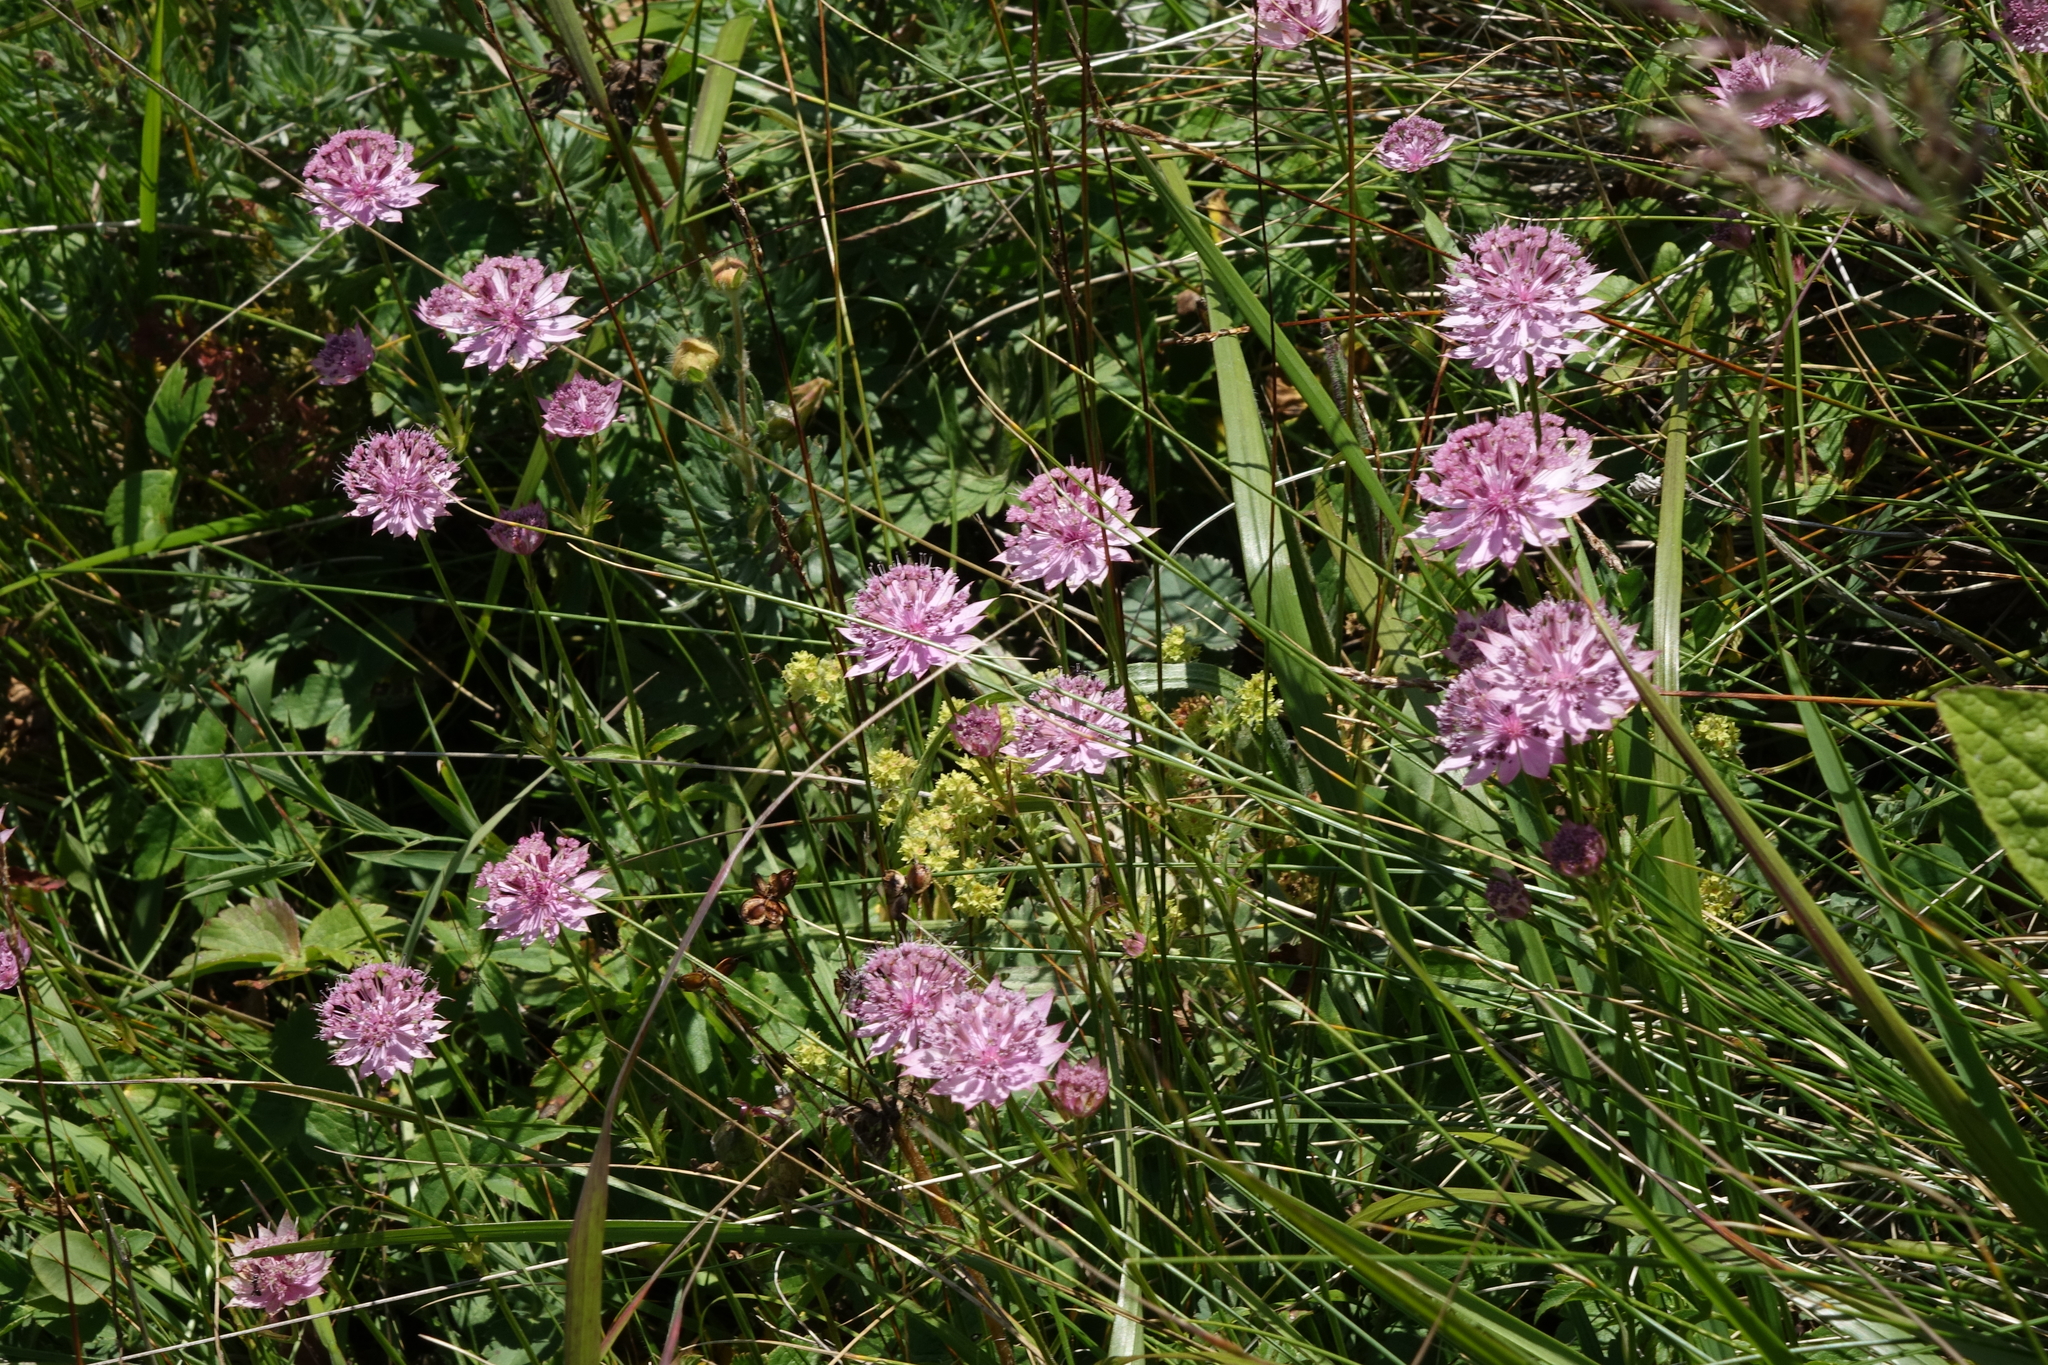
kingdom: Plantae
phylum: Tracheophyta
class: Magnoliopsida
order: Apiales
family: Apiaceae
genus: Astrantia
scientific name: Astrantia trifida
